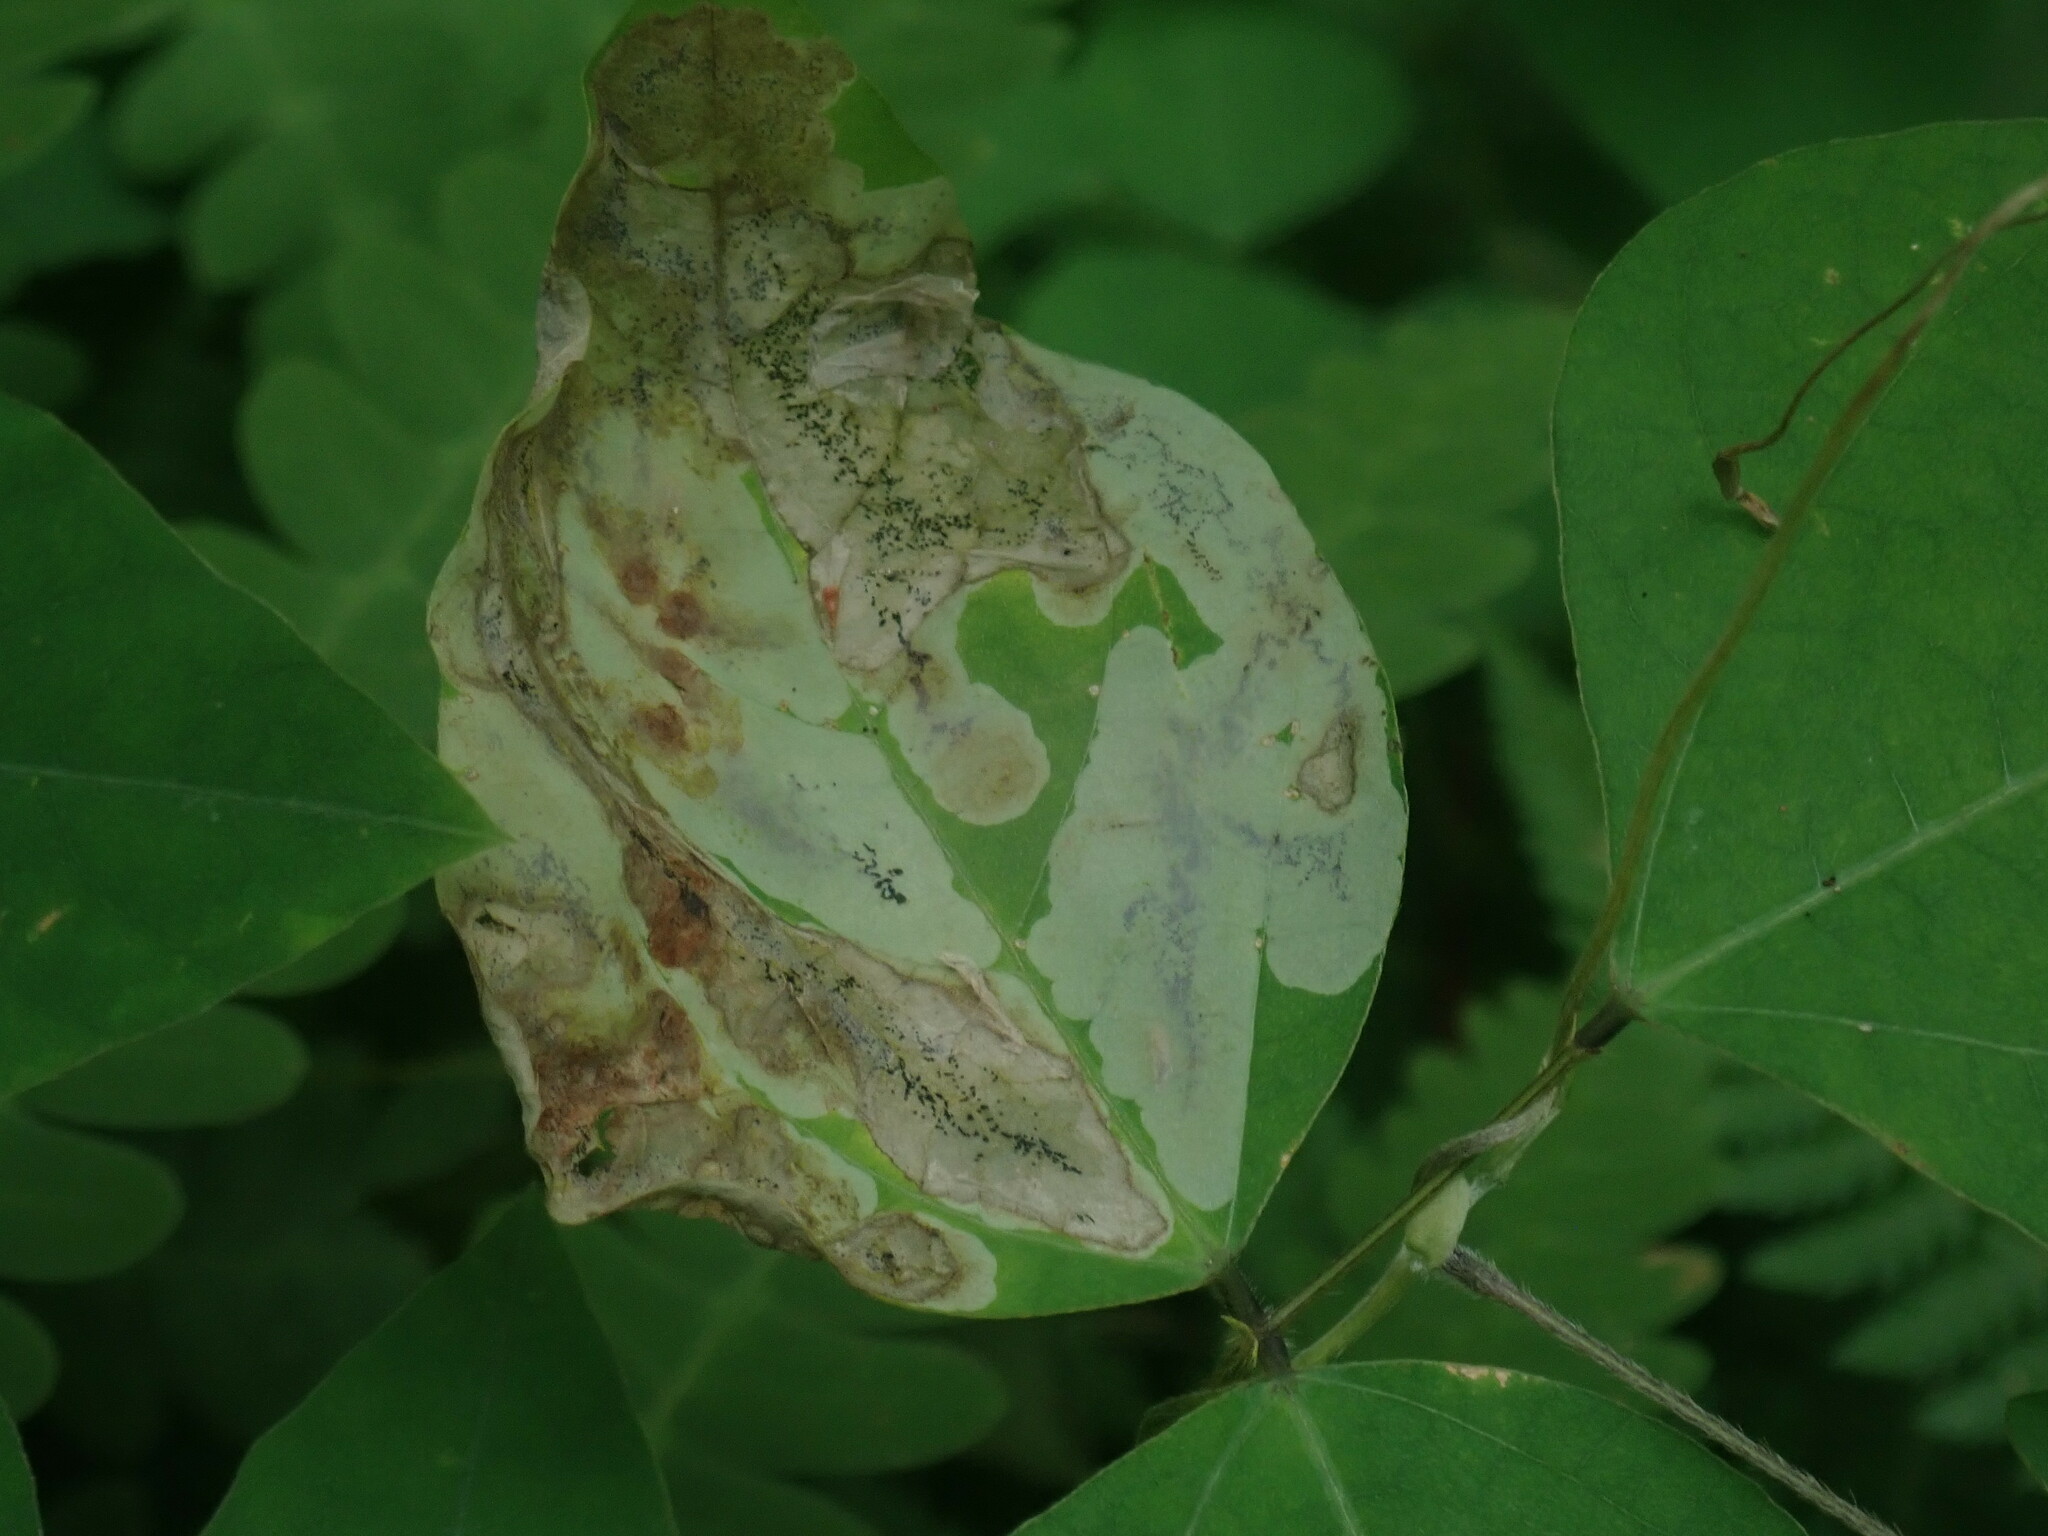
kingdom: Animalia
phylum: Arthropoda
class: Insecta
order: Lepidoptera
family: Gracillariidae
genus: Leucanthiza
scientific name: Leucanthiza amphicarpeaefoliella
